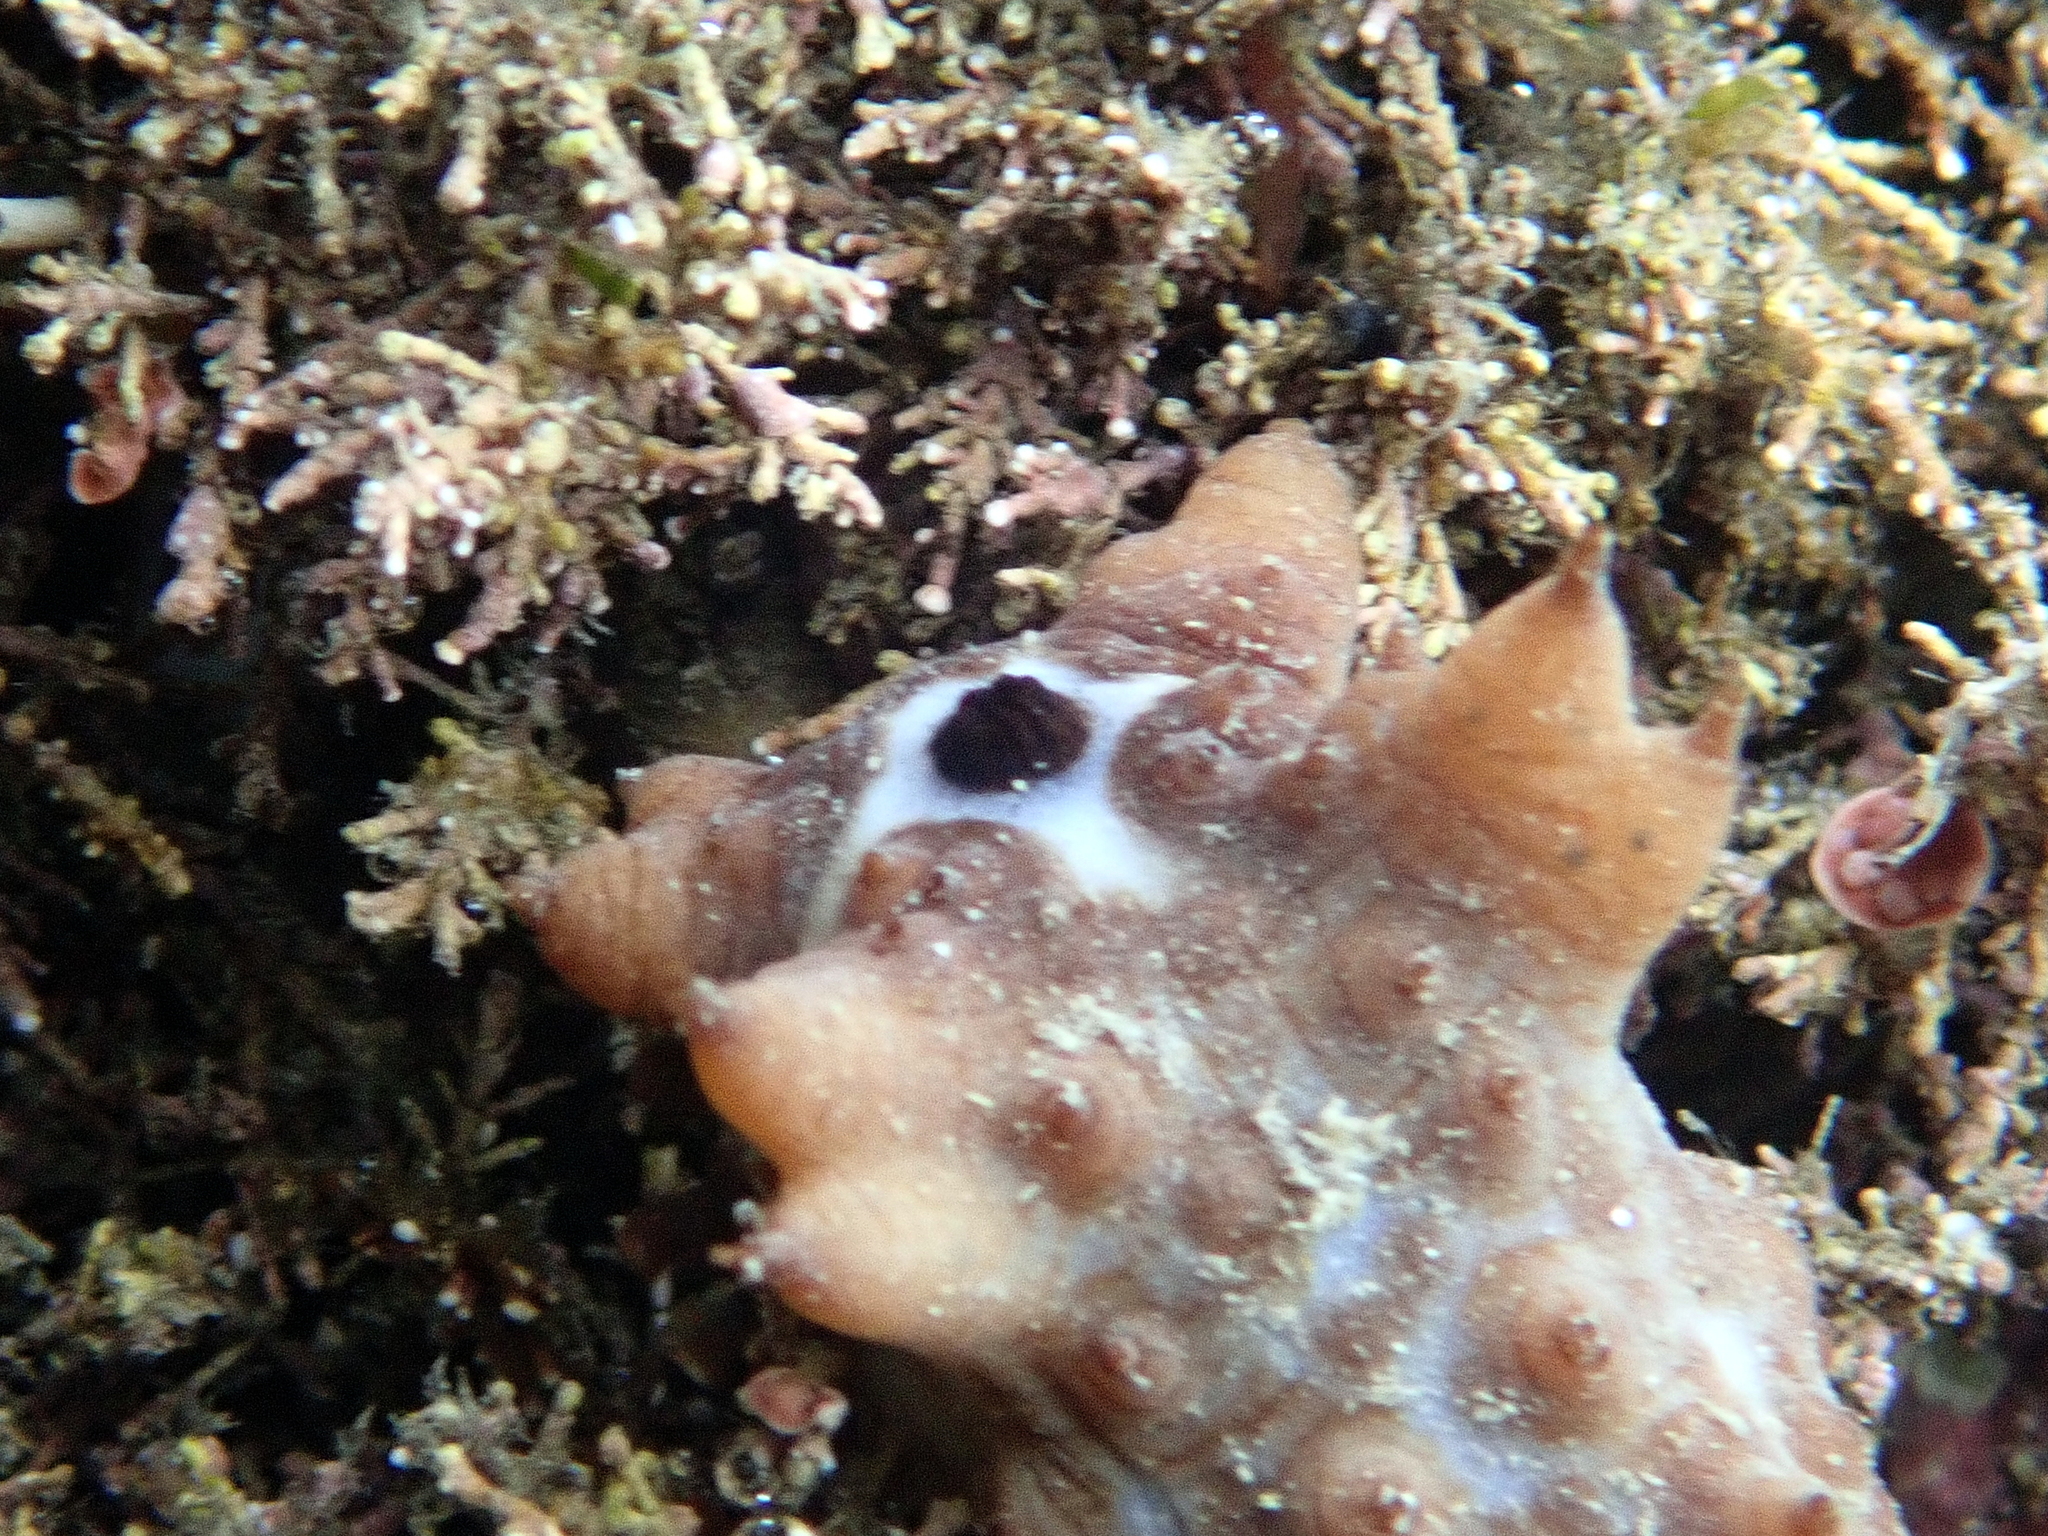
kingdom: Animalia
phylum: Echinodermata
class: Holothuroidea
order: Synallactida
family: Stichopodidae
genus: Australostichopus
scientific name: Australostichopus mollis
